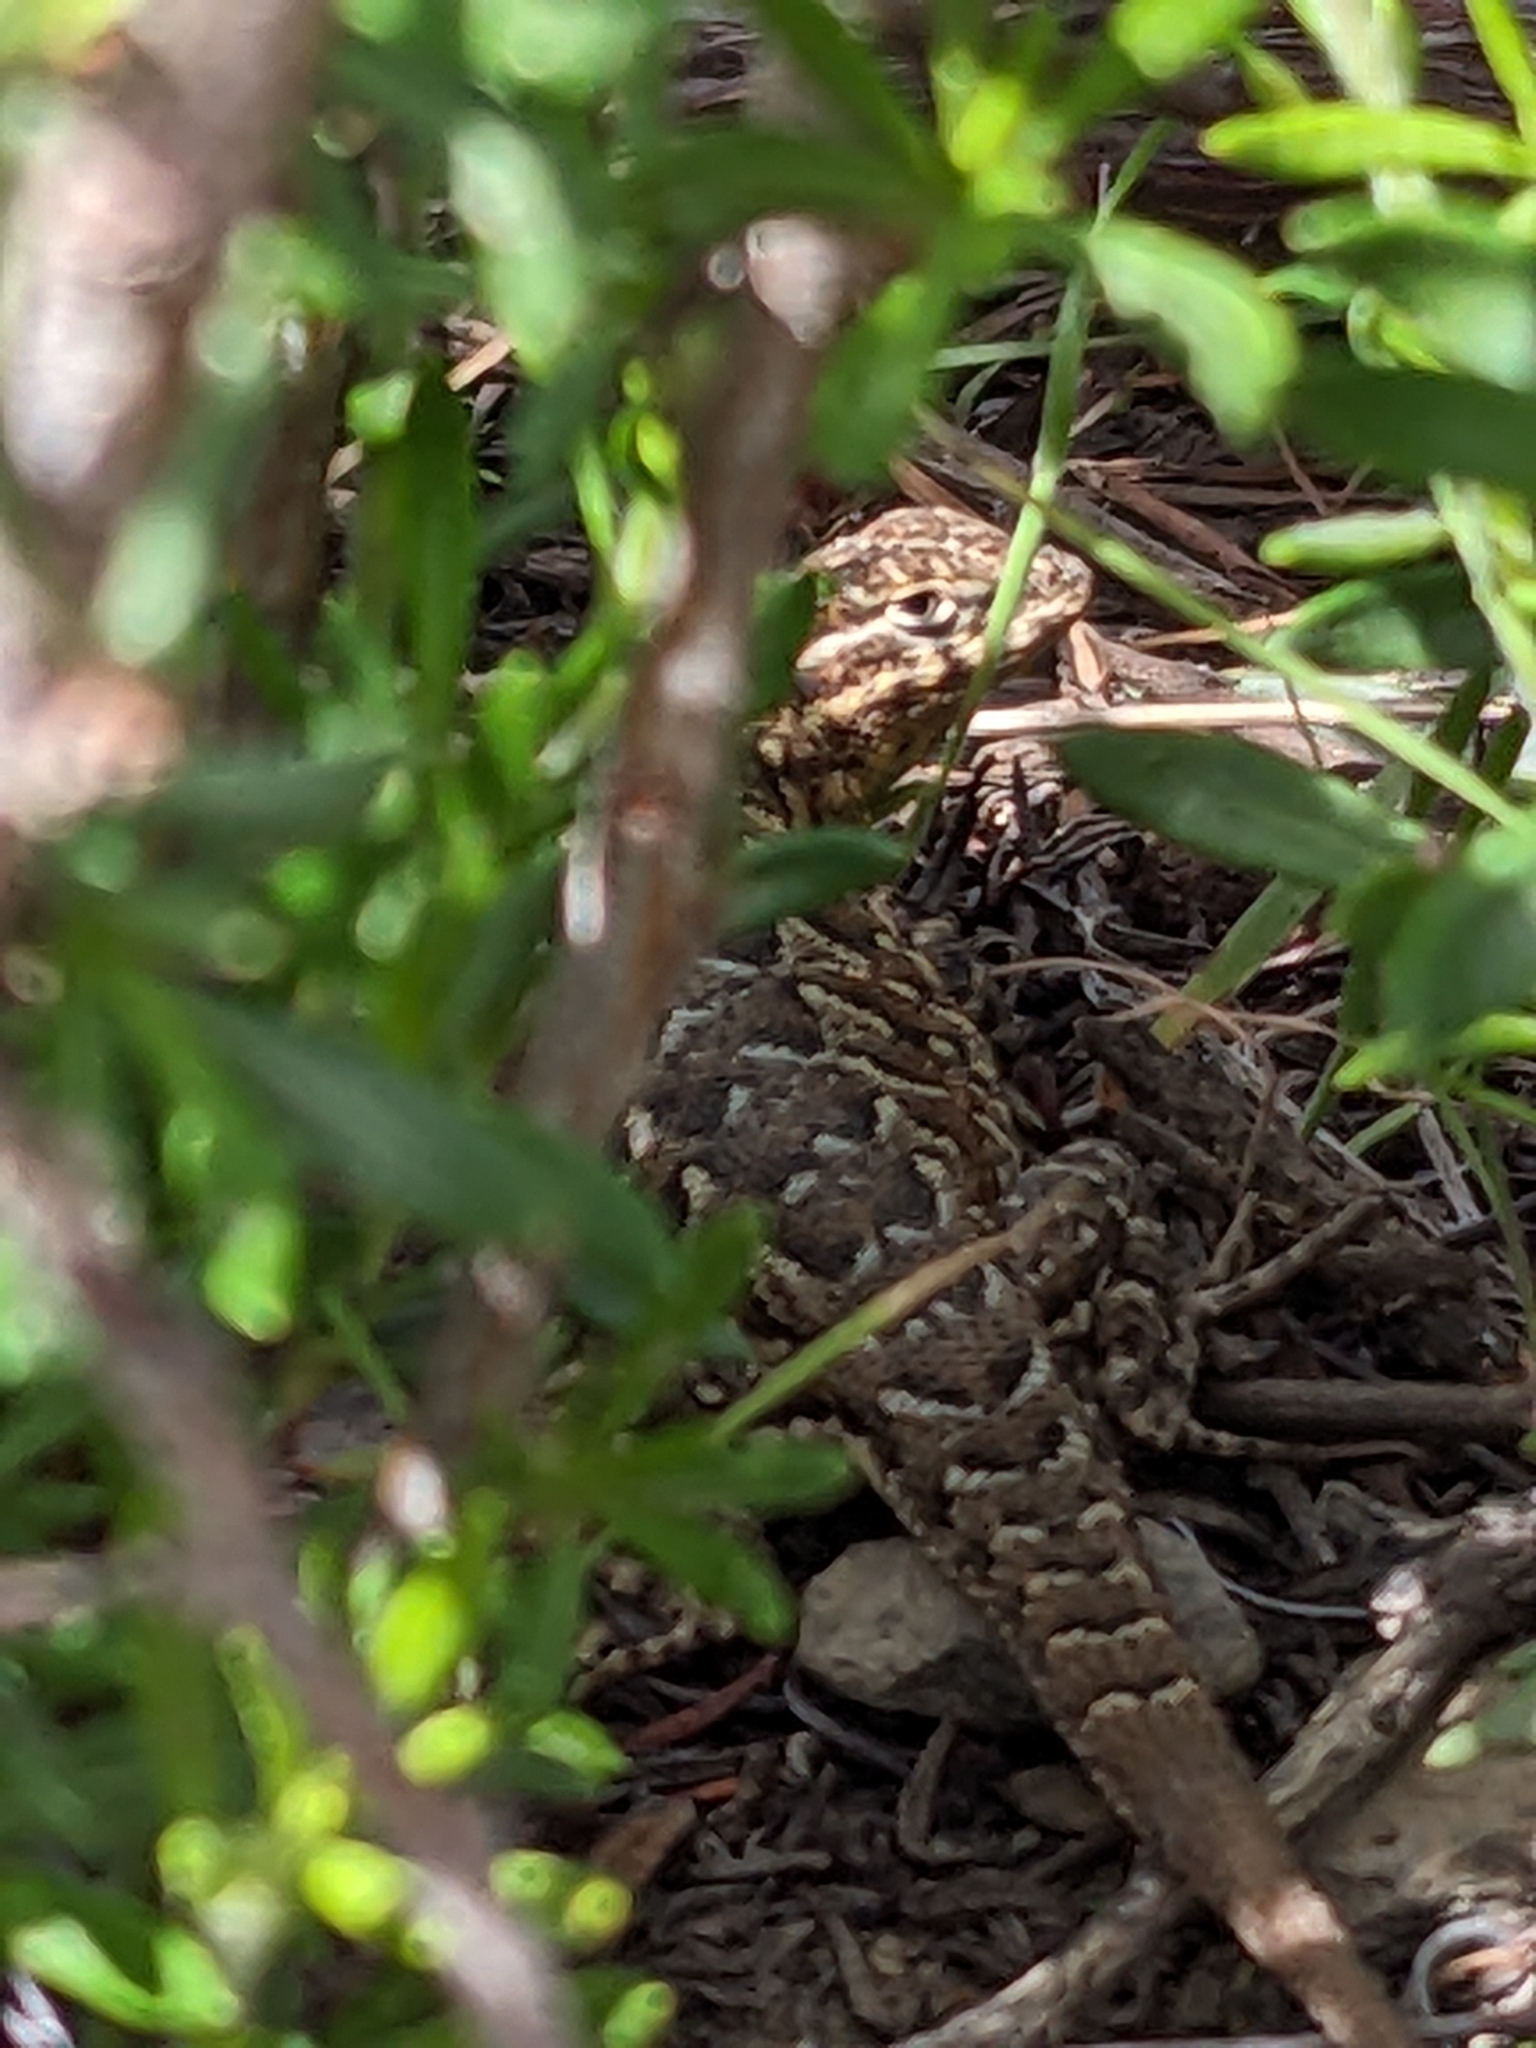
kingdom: Animalia
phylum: Chordata
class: Squamata
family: Phrynosomatidae
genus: Uta
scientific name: Uta stansburiana
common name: Side-blotched lizard
